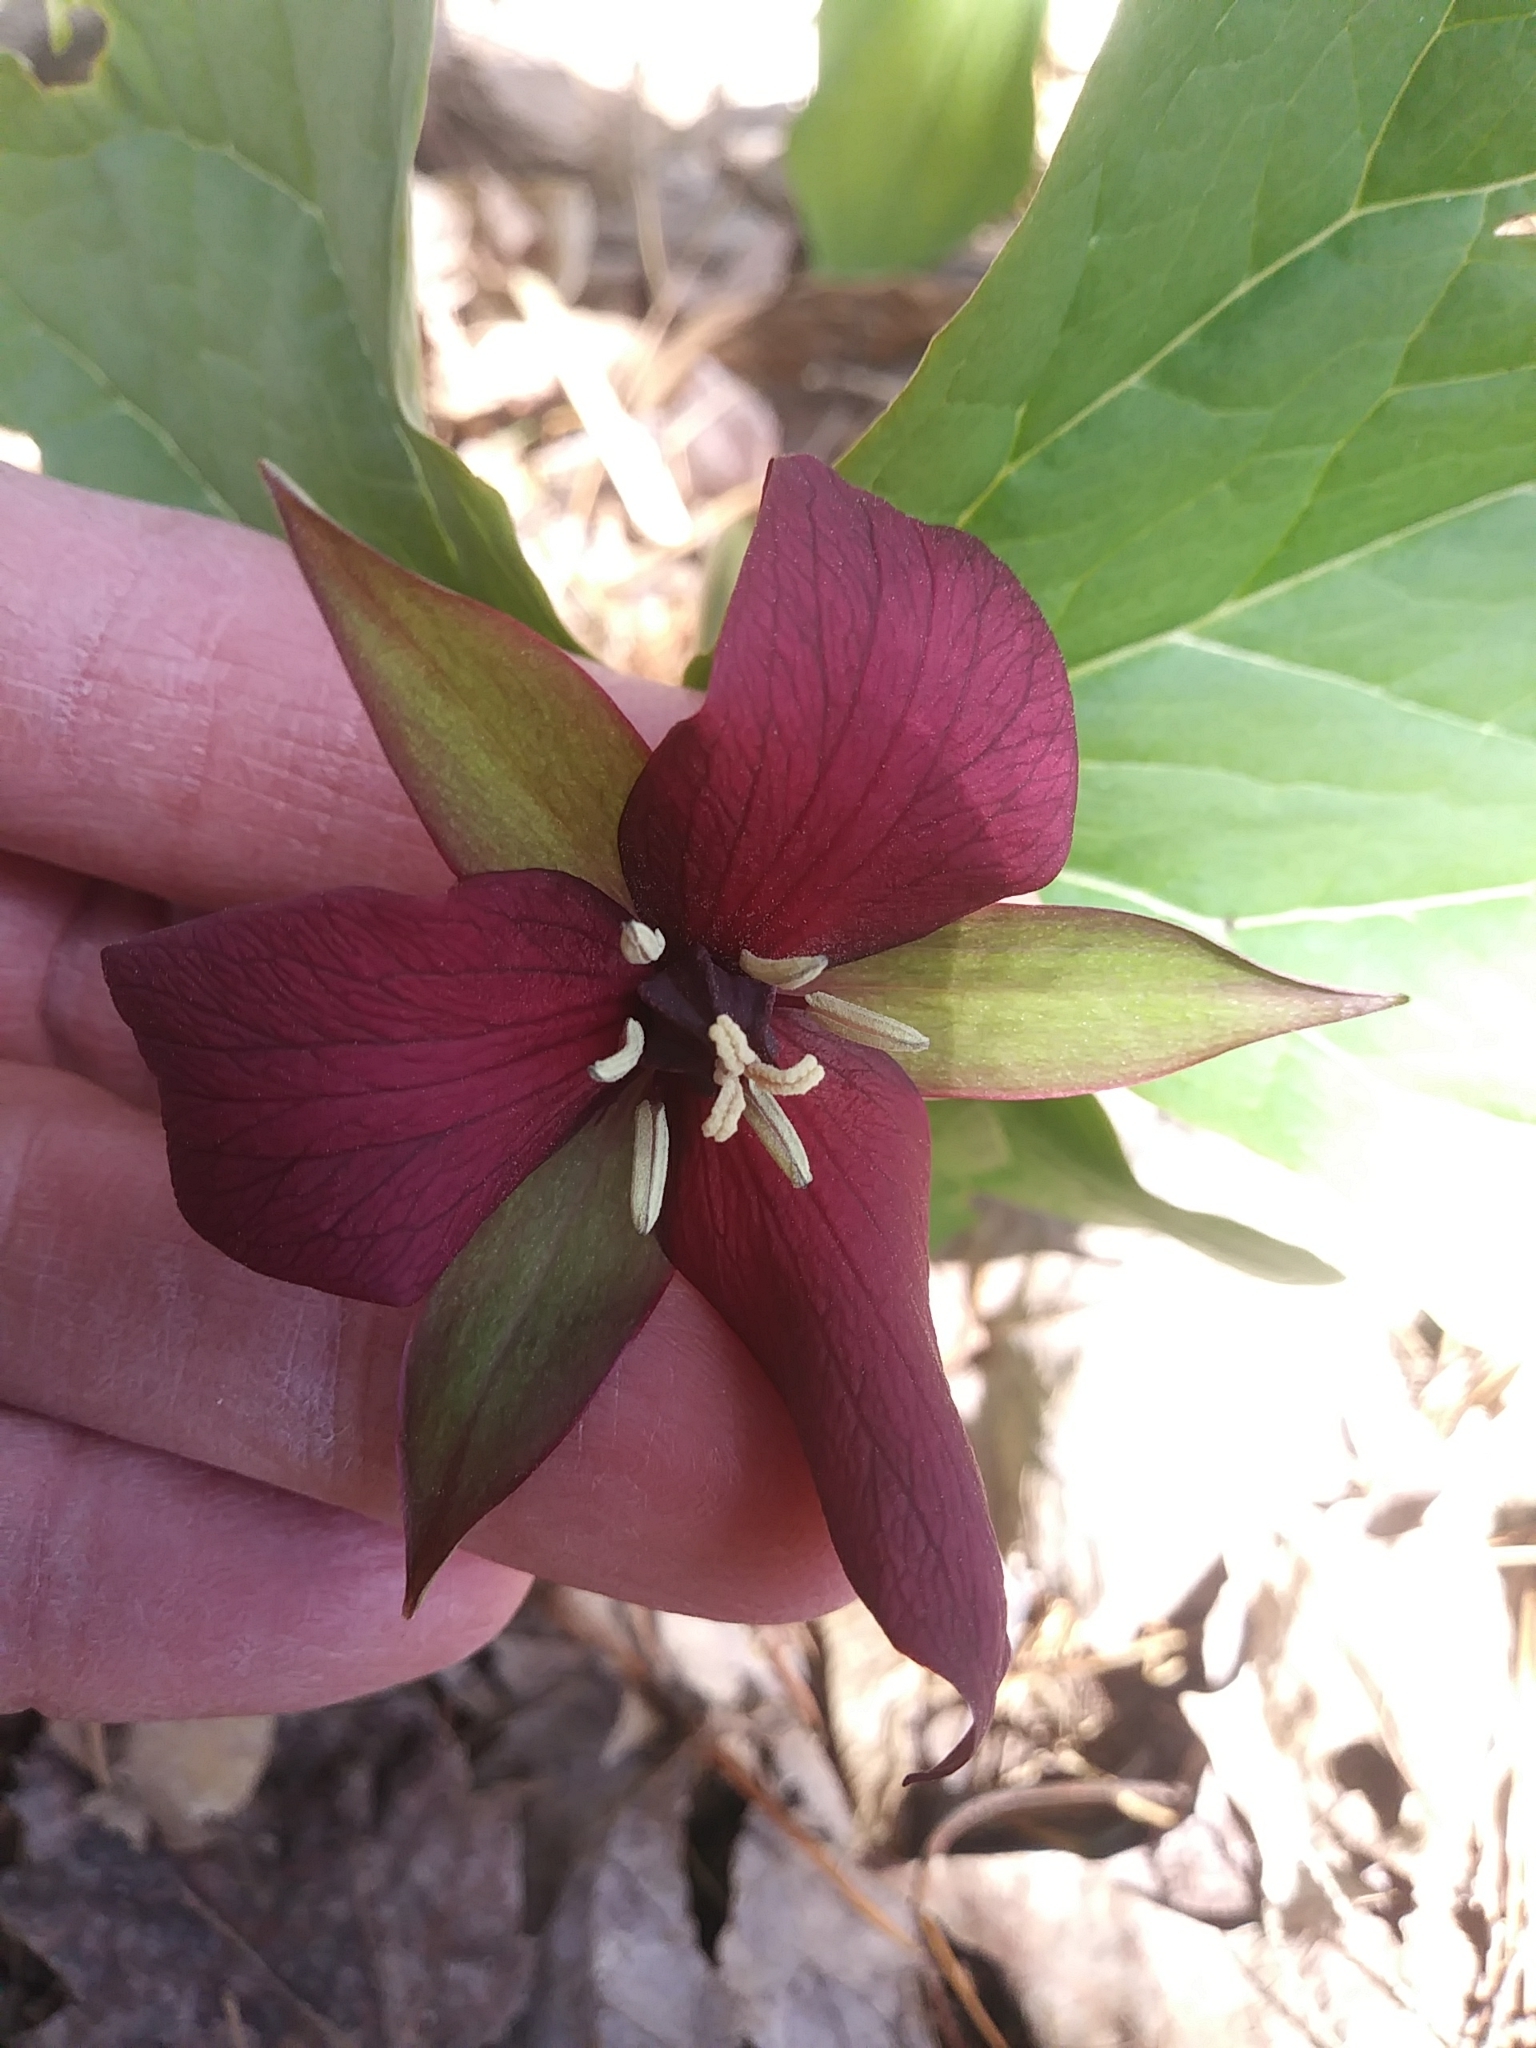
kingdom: Plantae
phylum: Tracheophyta
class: Liliopsida
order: Liliales
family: Melanthiaceae
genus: Trillium
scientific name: Trillium erectum
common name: Purple trillium
